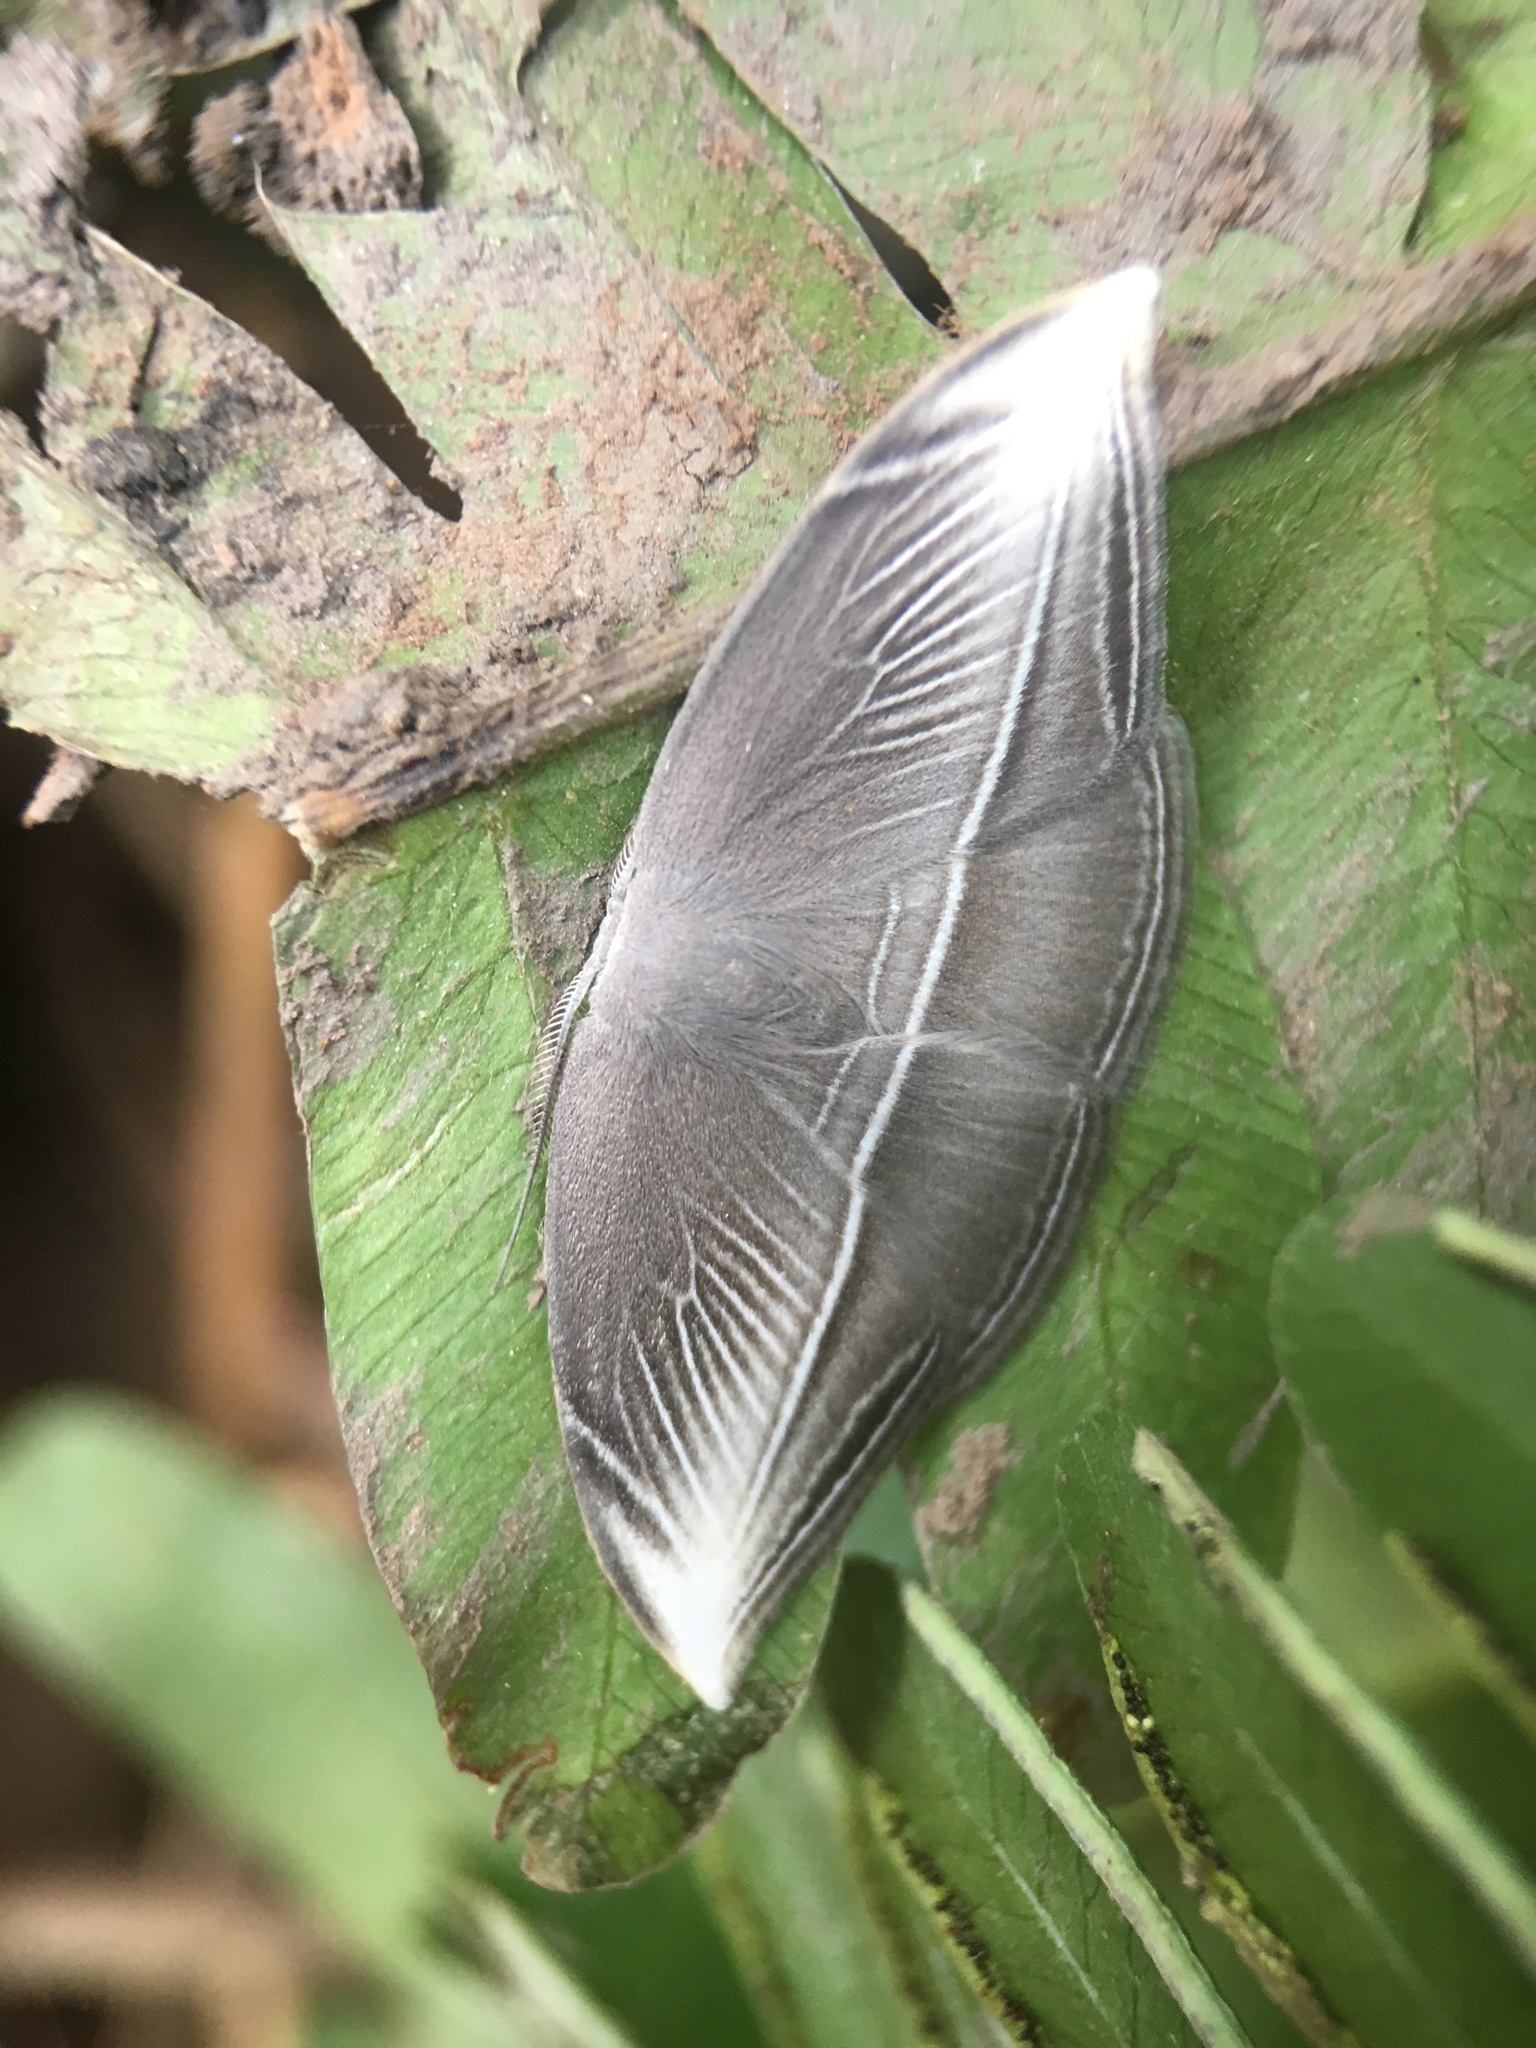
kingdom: Animalia
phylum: Arthropoda
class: Insecta
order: Lepidoptera
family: Drepanidae
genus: Microblepsis
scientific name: Microblepsis leucosticta
